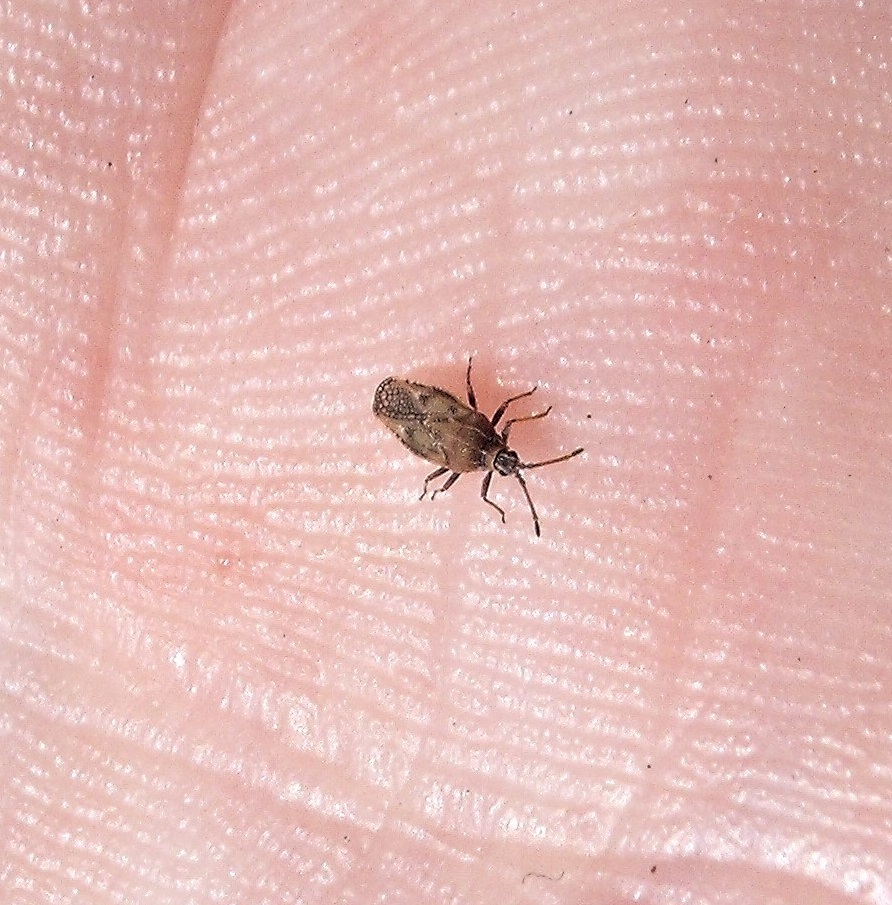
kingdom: Animalia
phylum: Arthropoda
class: Insecta
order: Hemiptera
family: Tingidae
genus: Leptoypha
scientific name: Leptoypha hospita
